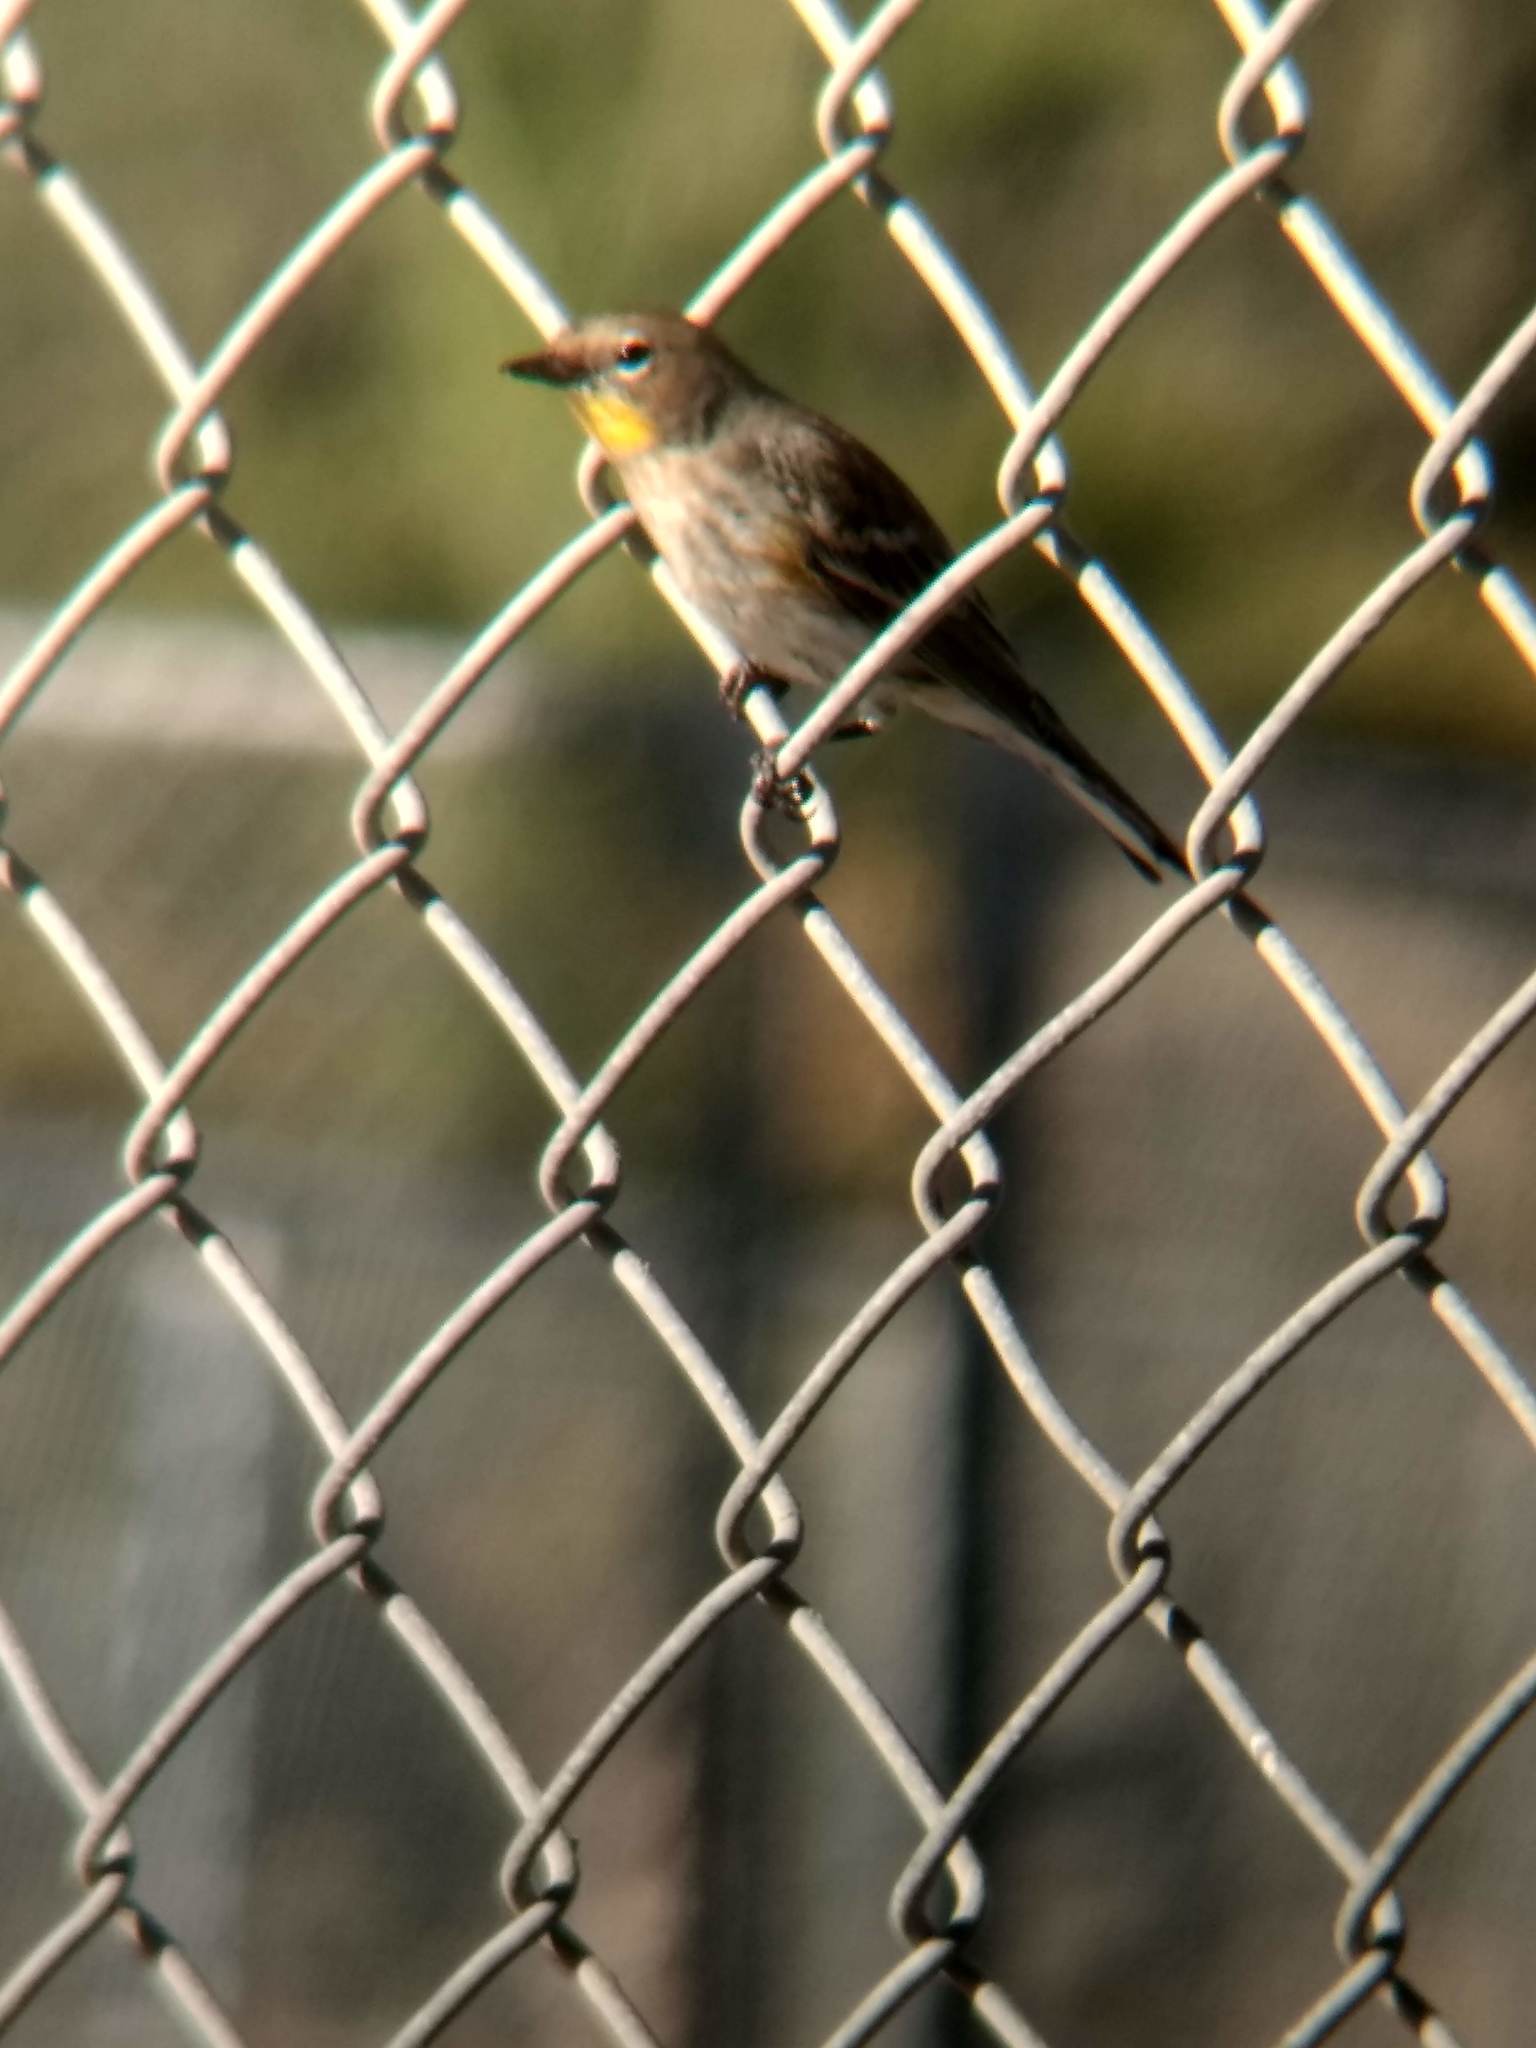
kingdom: Animalia
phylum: Chordata
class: Aves
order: Passeriformes
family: Parulidae
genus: Setophaga
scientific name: Setophaga coronata
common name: Myrtle warbler
